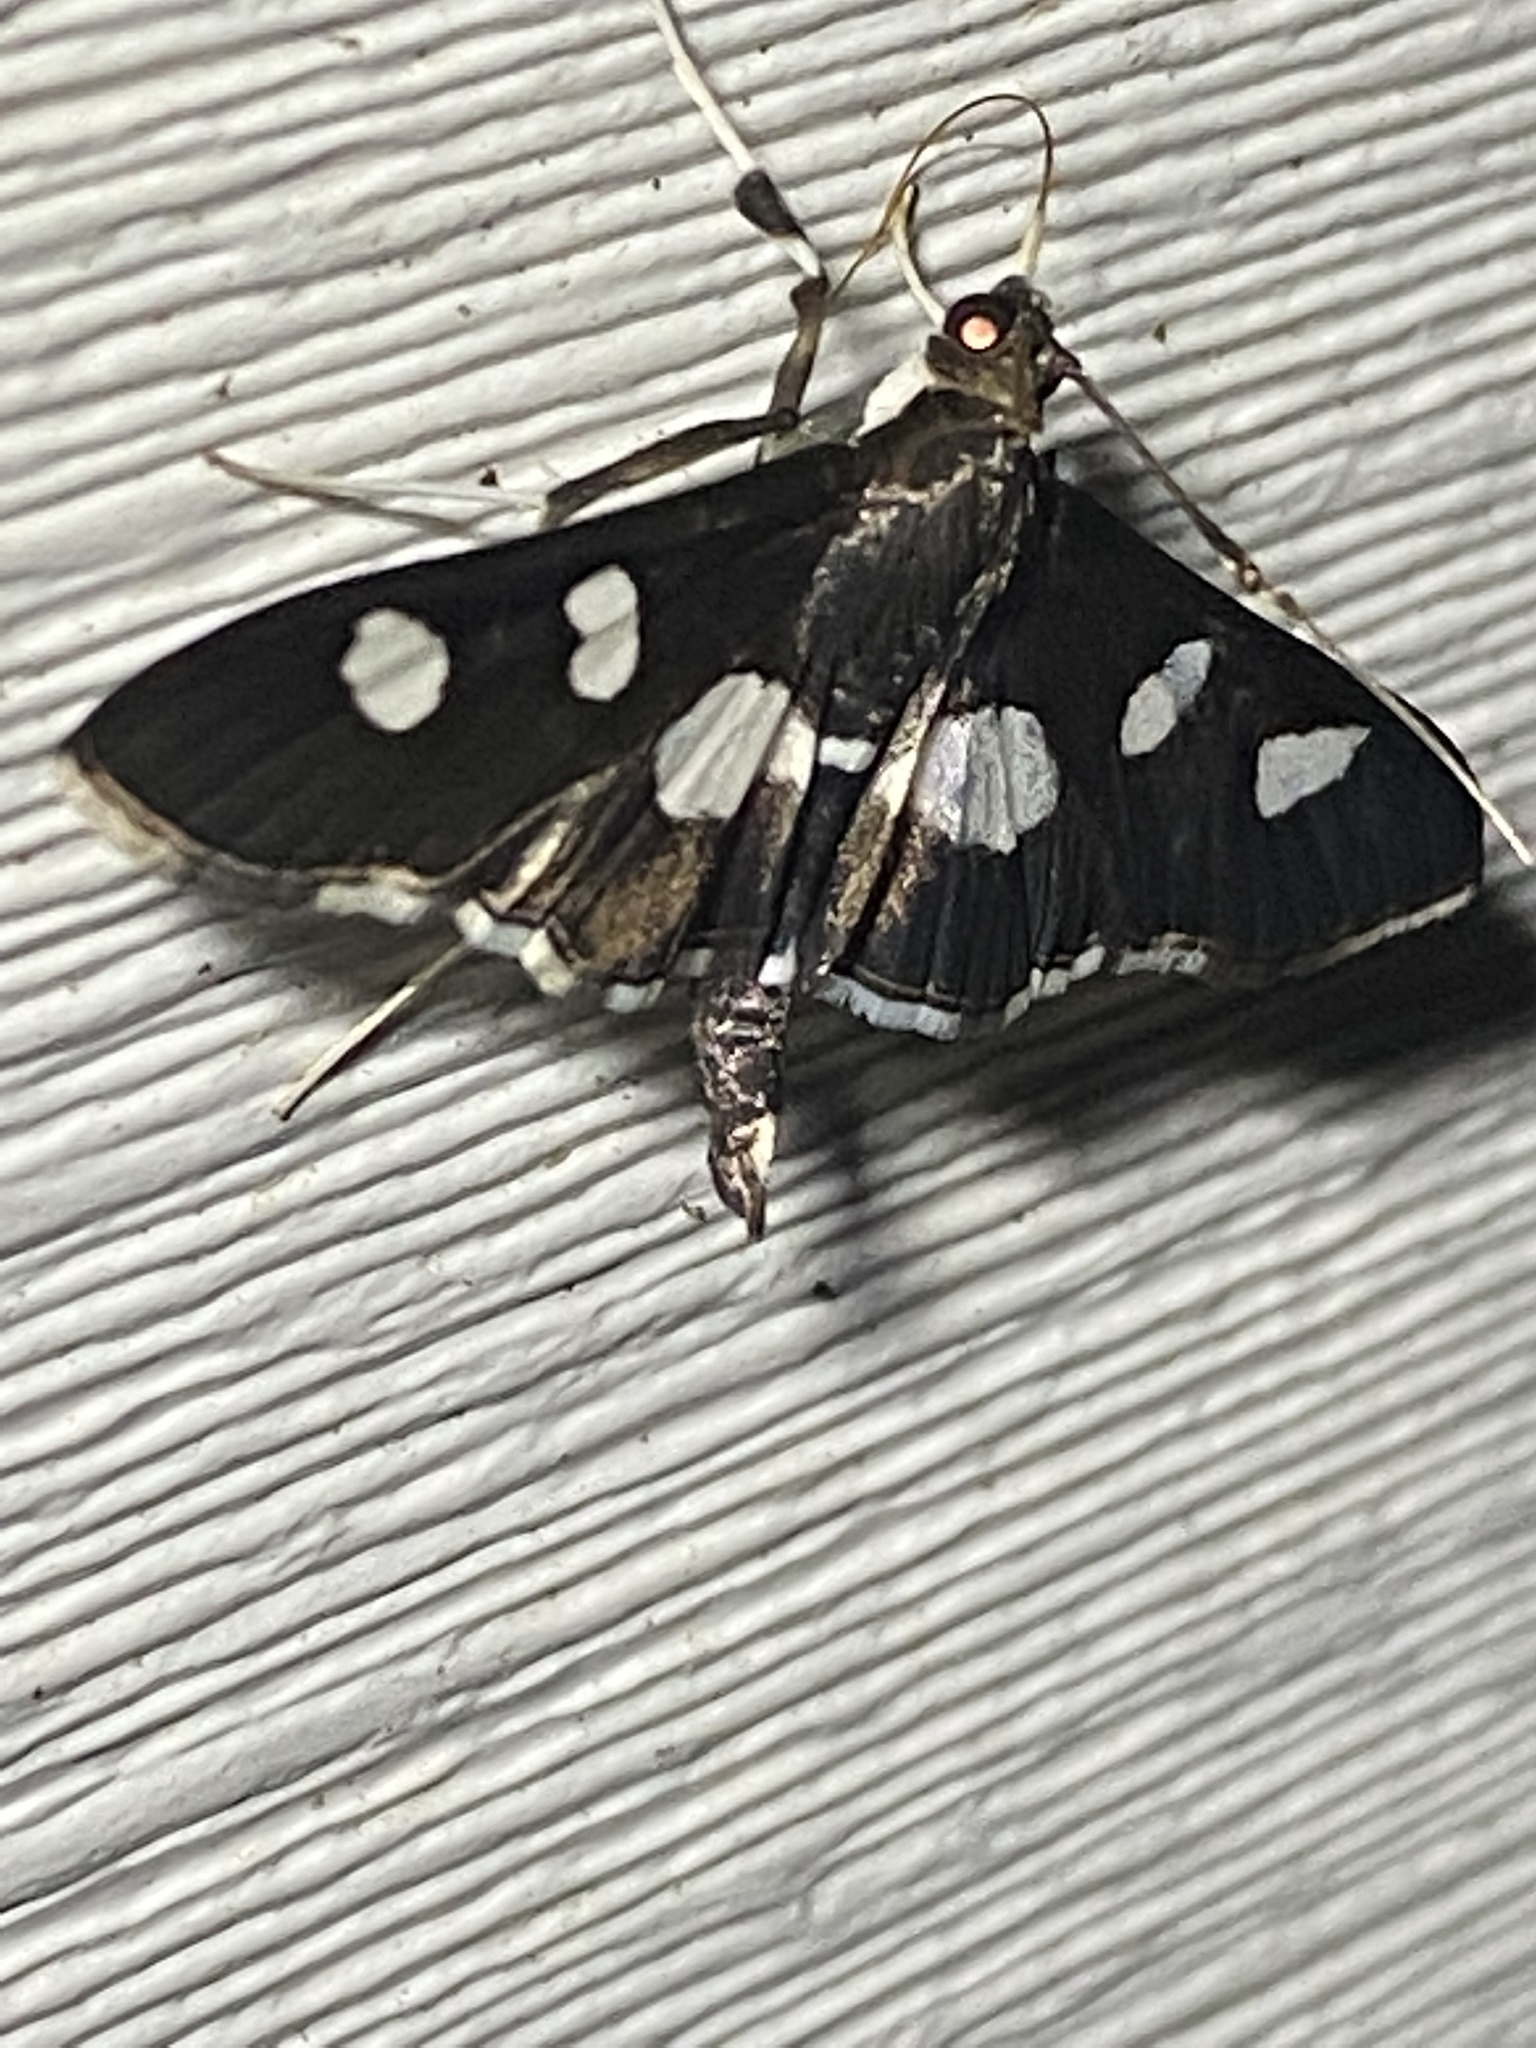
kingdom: Animalia
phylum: Arthropoda
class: Insecta
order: Lepidoptera
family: Crambidae
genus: Desmia
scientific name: Desmia
